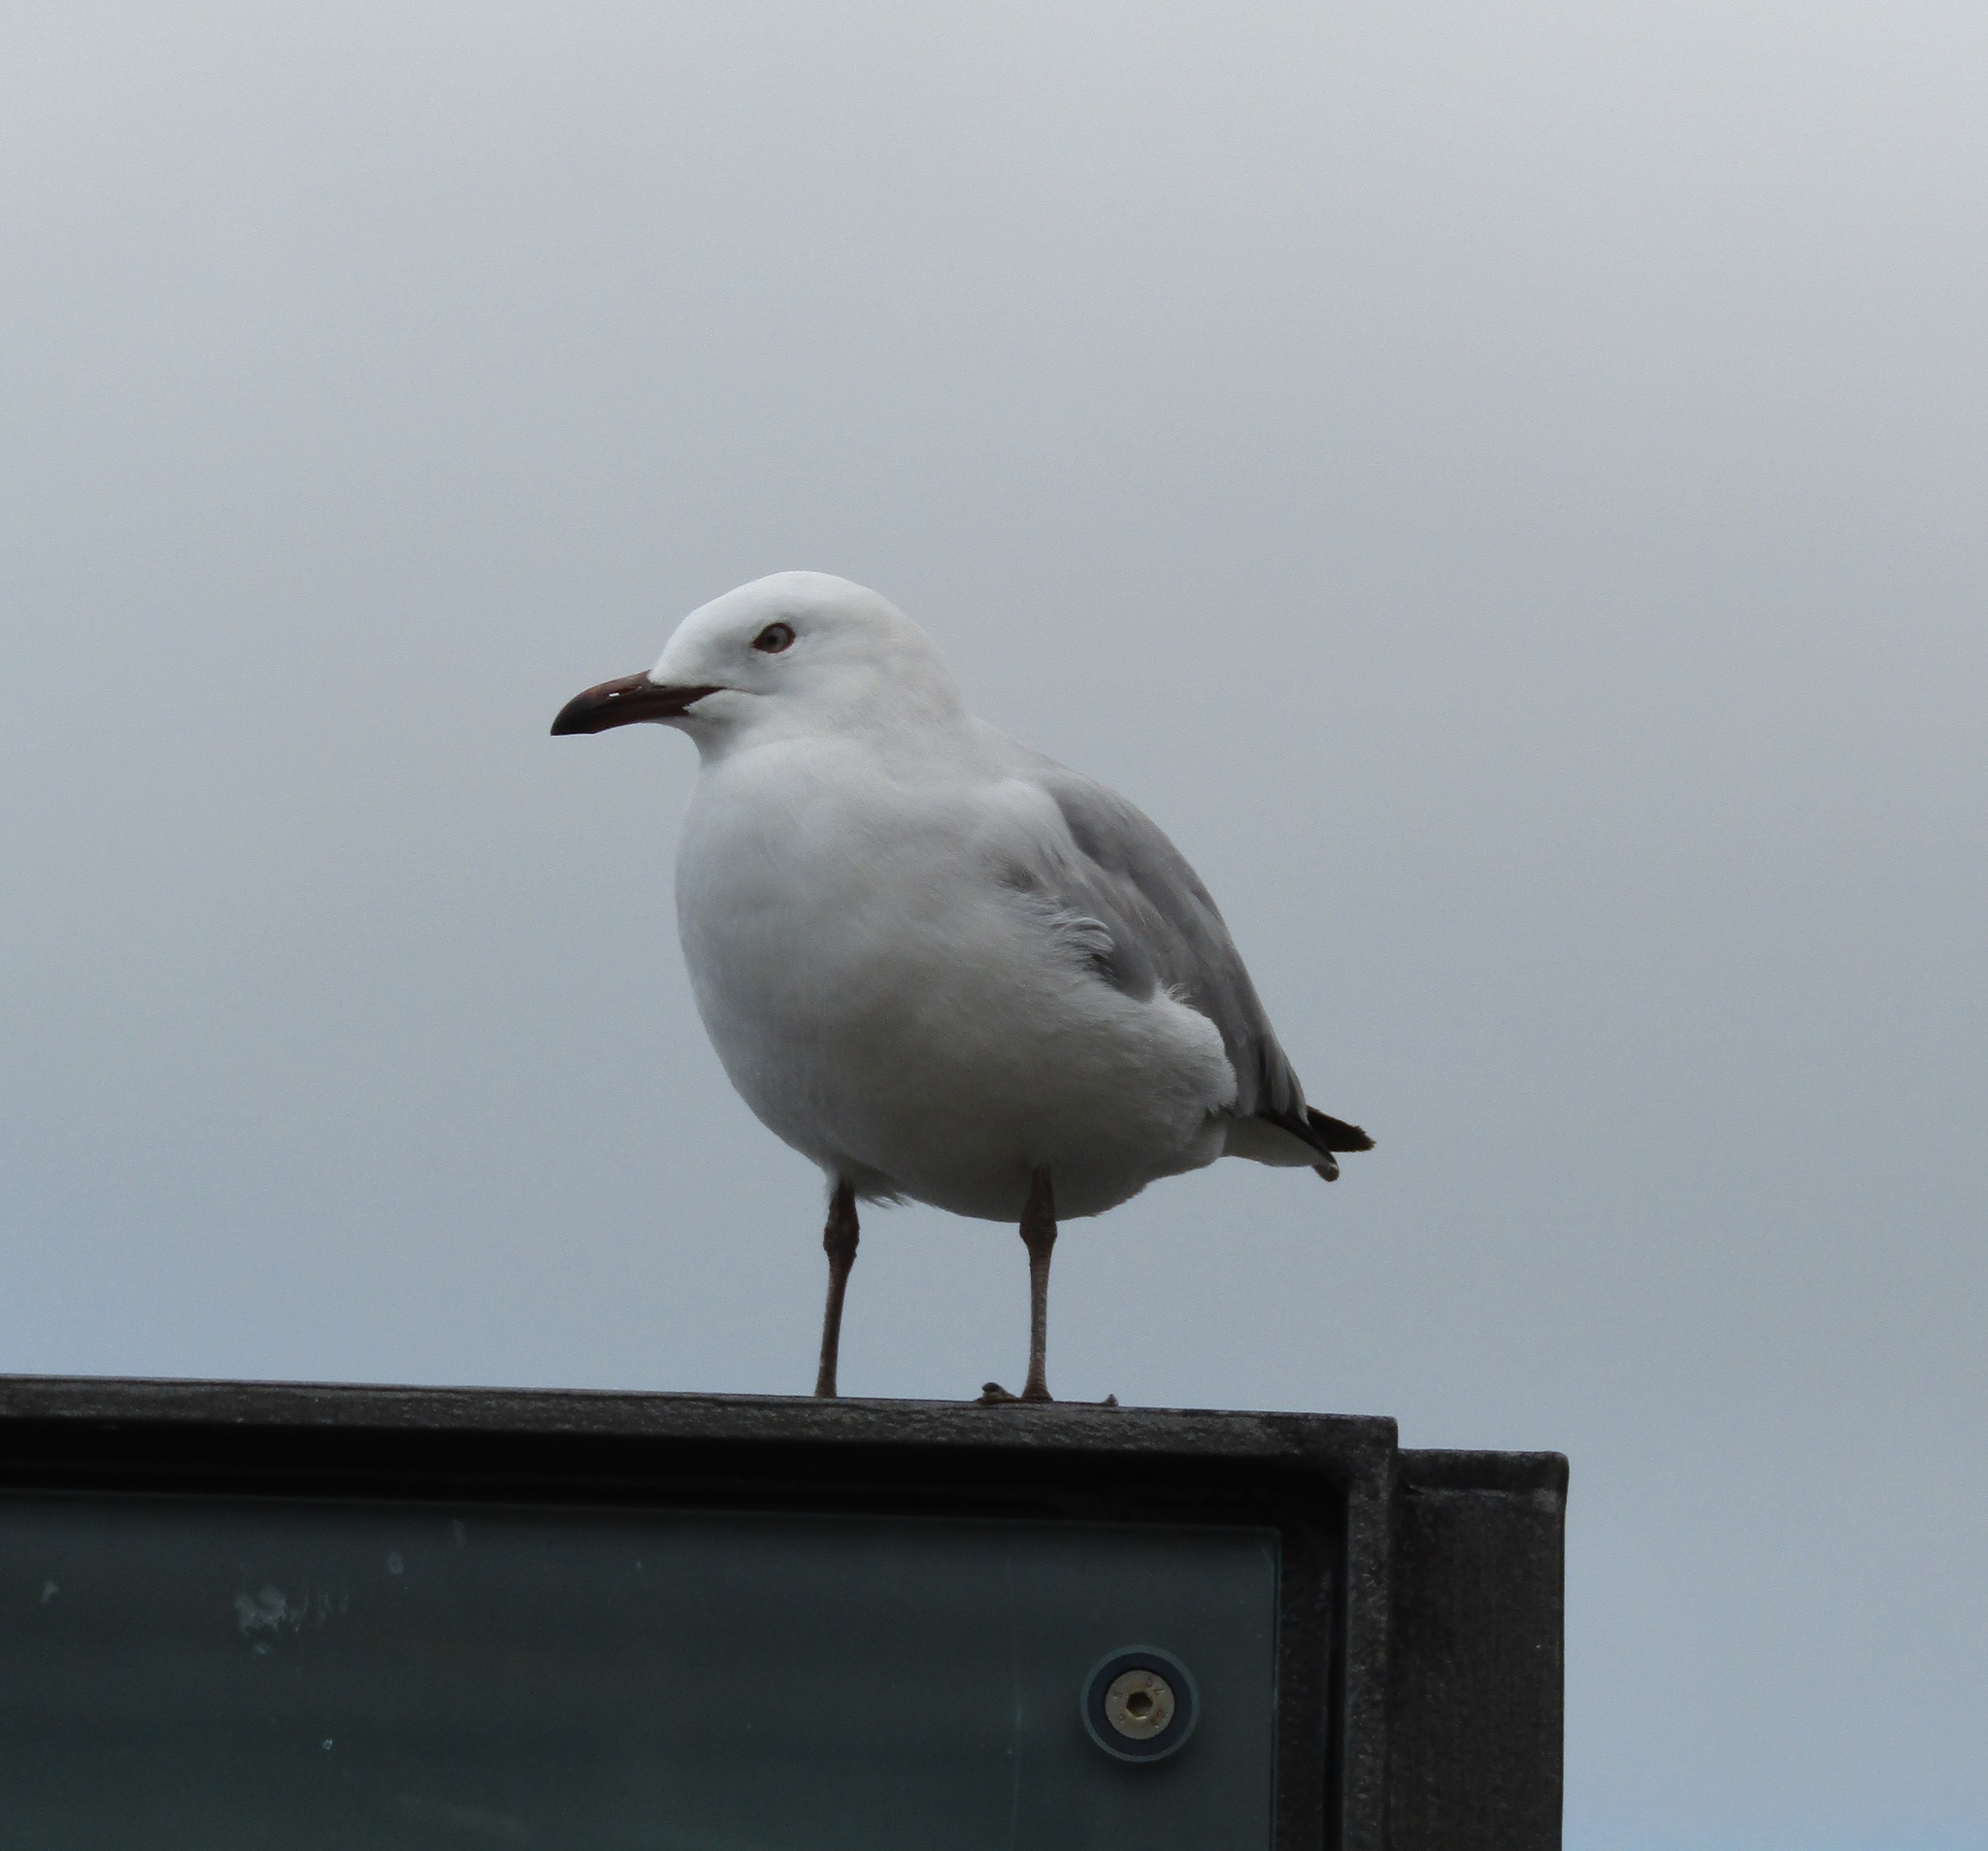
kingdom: Animalia
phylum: Chordata
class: Aves
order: Charadriiformes
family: Laridae
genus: Chroicocephalus
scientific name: Chroicocephalus novaehollandiae
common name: Silver gull
